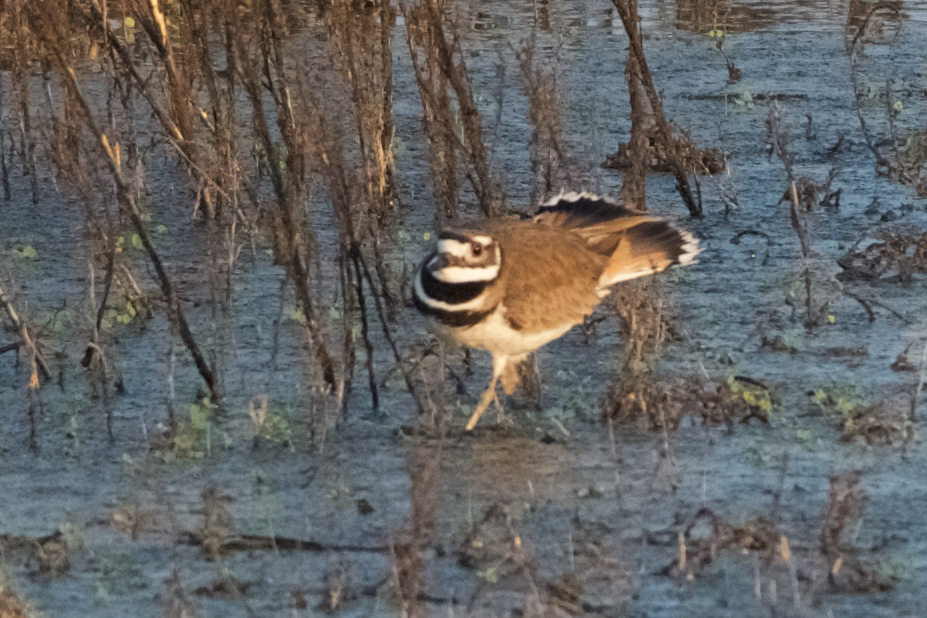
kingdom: Animalia
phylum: Chordata
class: Aves
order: Charadriiformes
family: Charadriidae
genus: Charadrius
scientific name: Charadrius vociferus
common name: Killdeer
